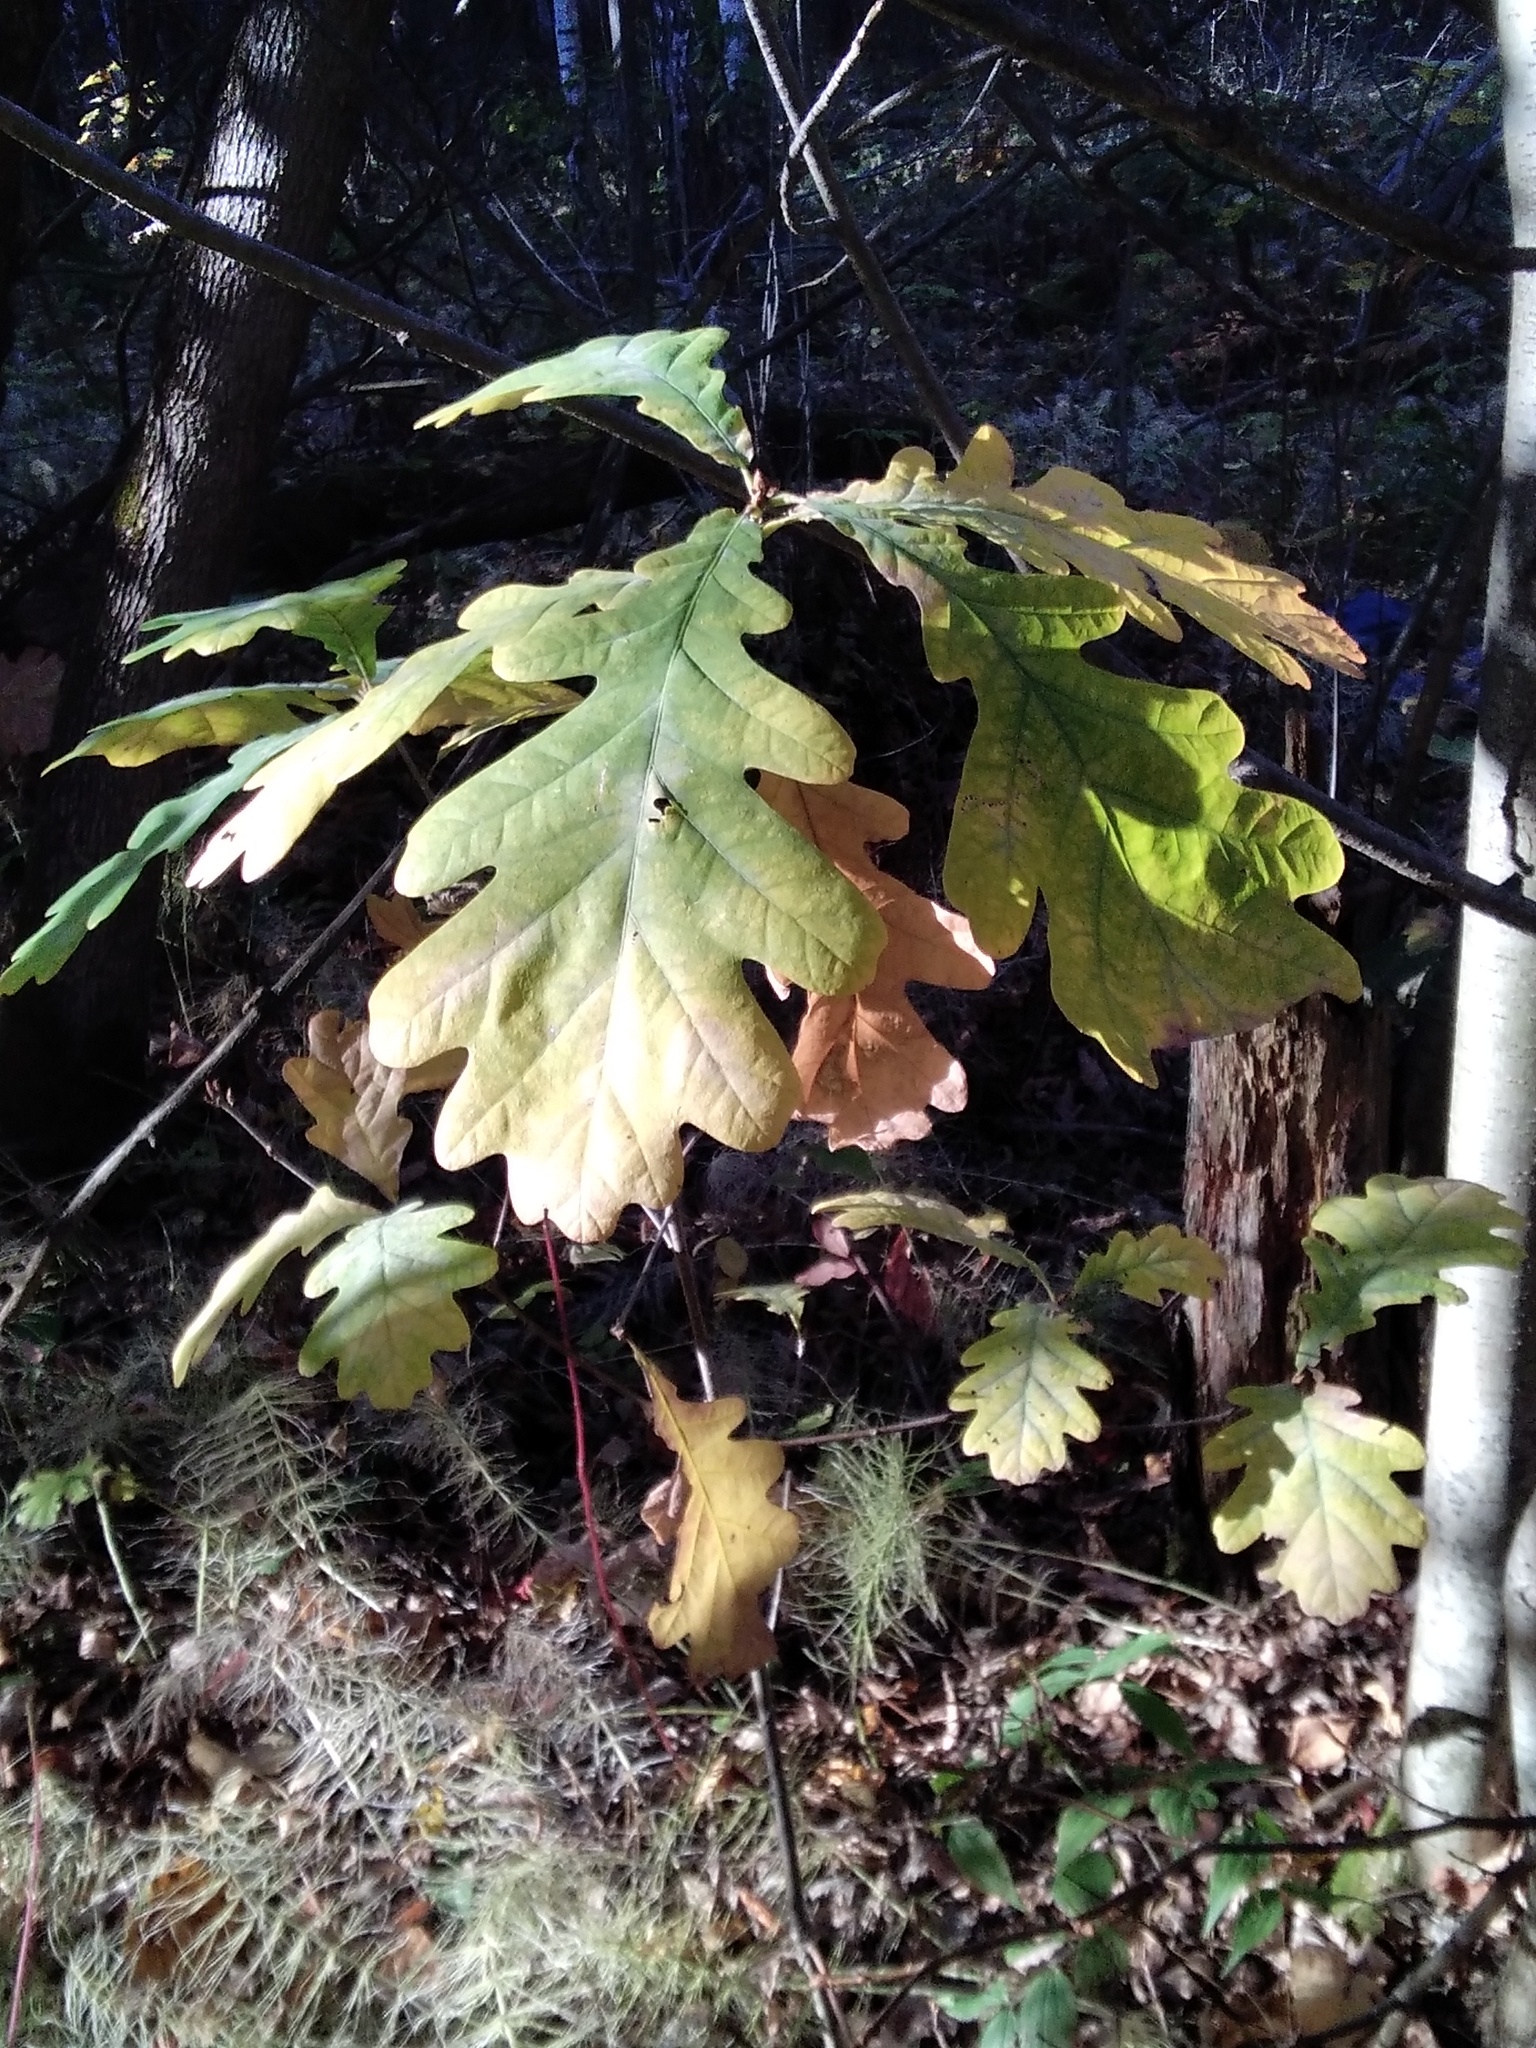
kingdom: Plantae
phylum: Tracheophyta
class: Magnoliopsida
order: Fagales
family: Fagaceae
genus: Quercus
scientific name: Quercus robur
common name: Pedunculate oak
